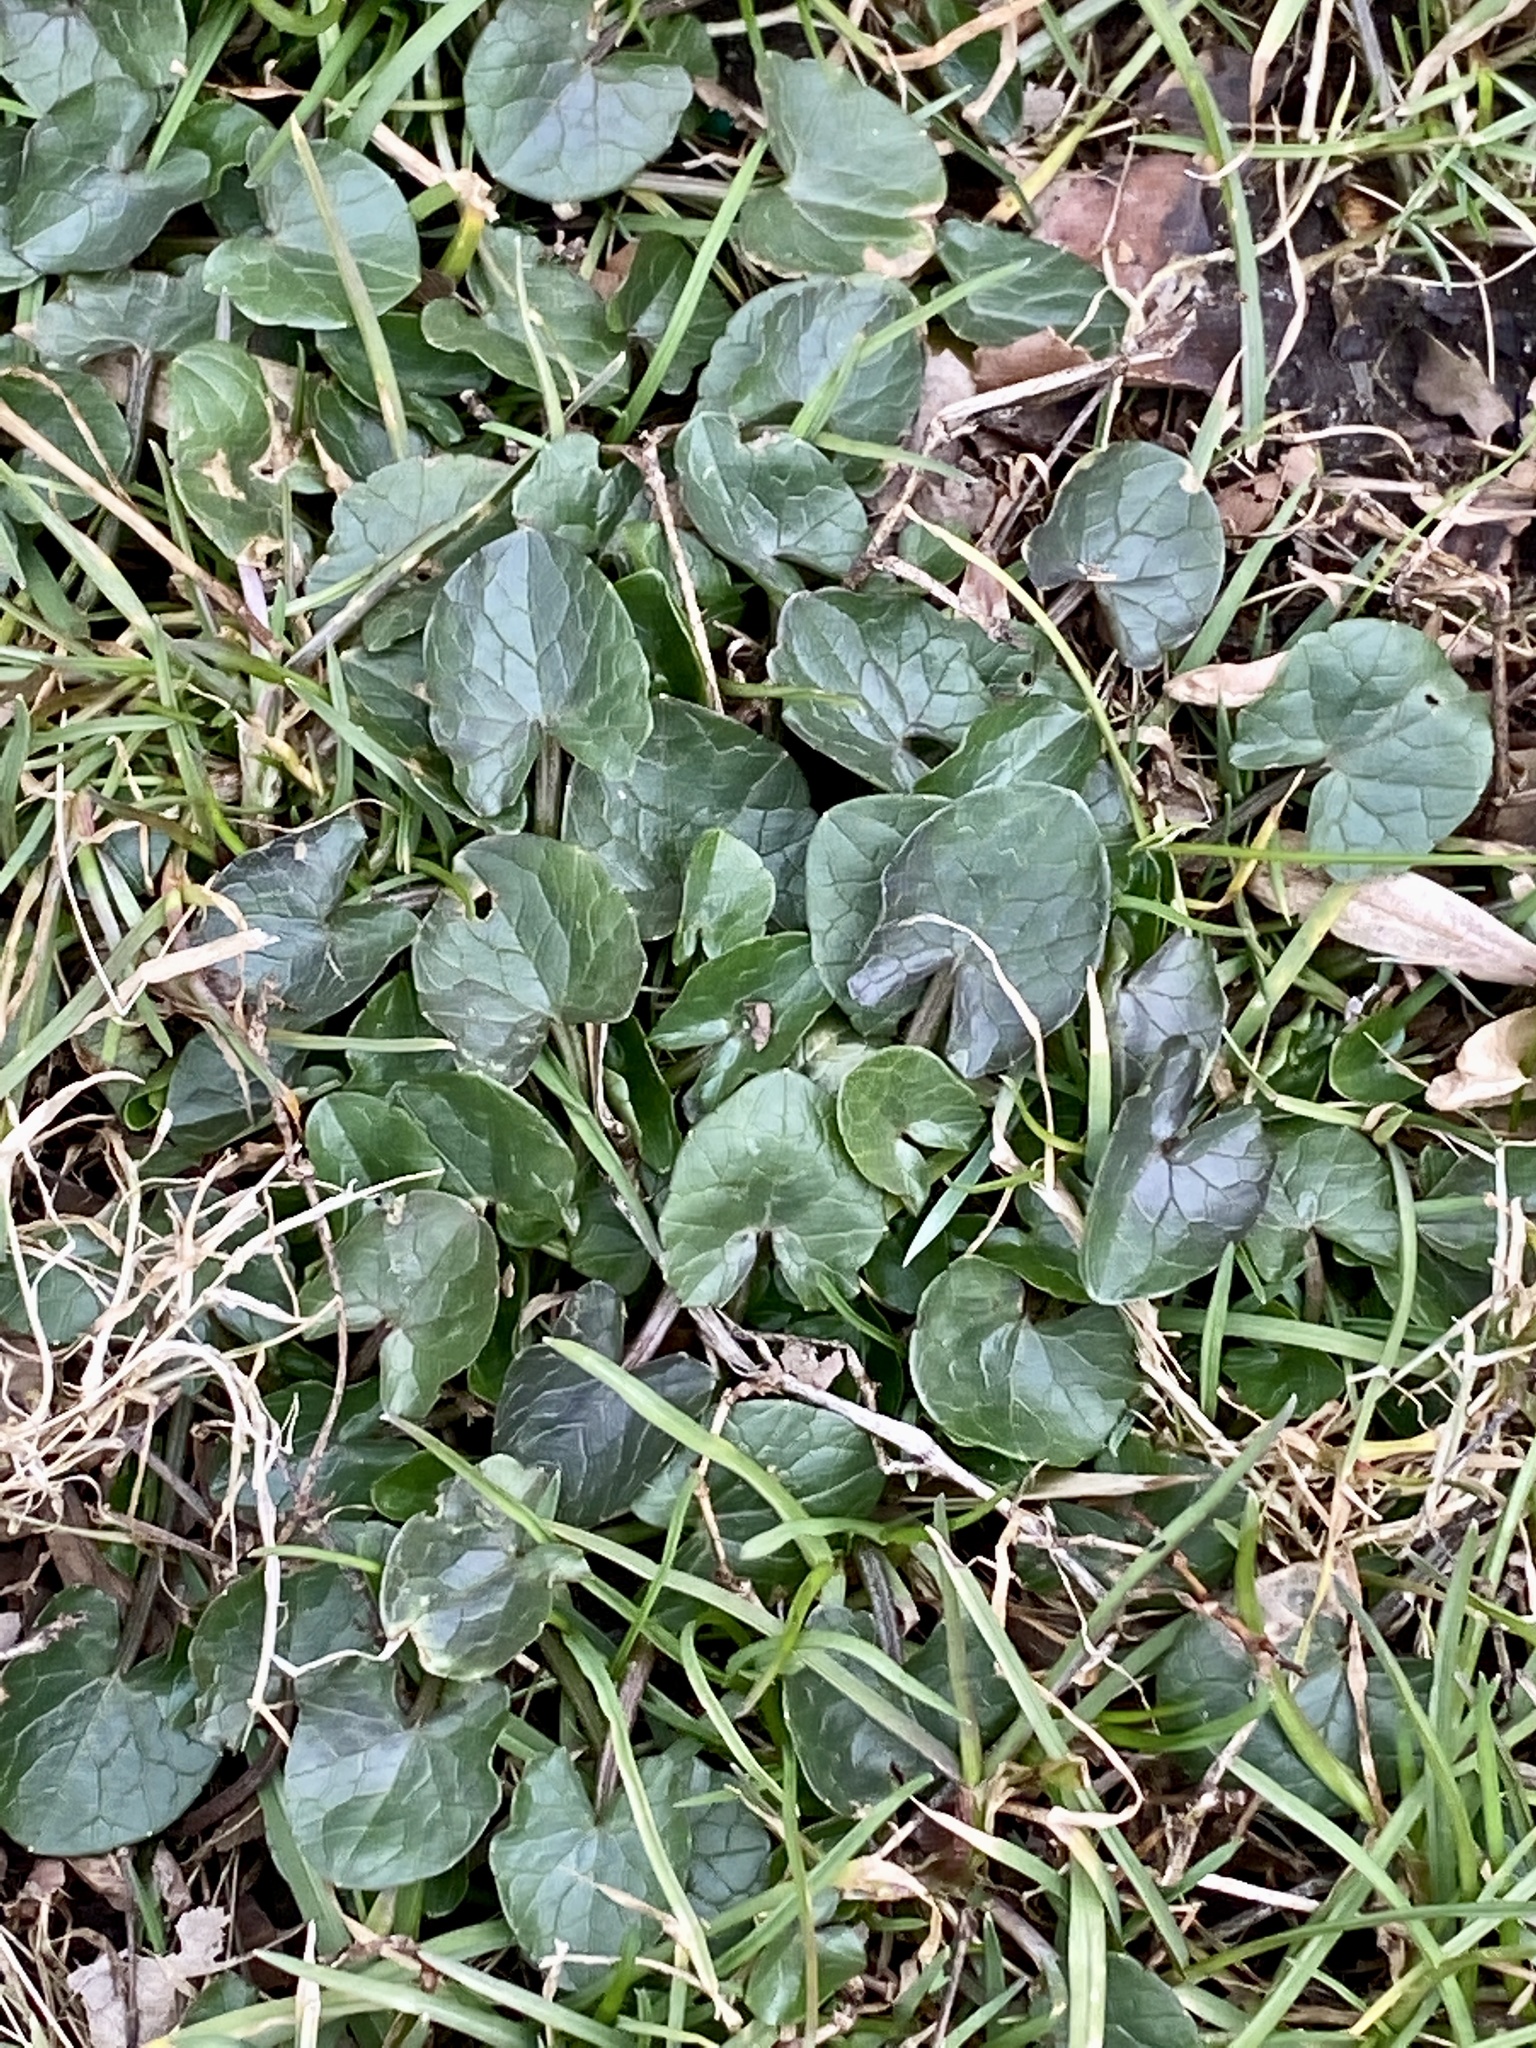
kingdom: Plantae
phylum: Tracheophyta
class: Magnoliopsida
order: Ranunculales
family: Ranunculaceae
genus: Ficaria
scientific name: Ficaria verna
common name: Lesser celandine
